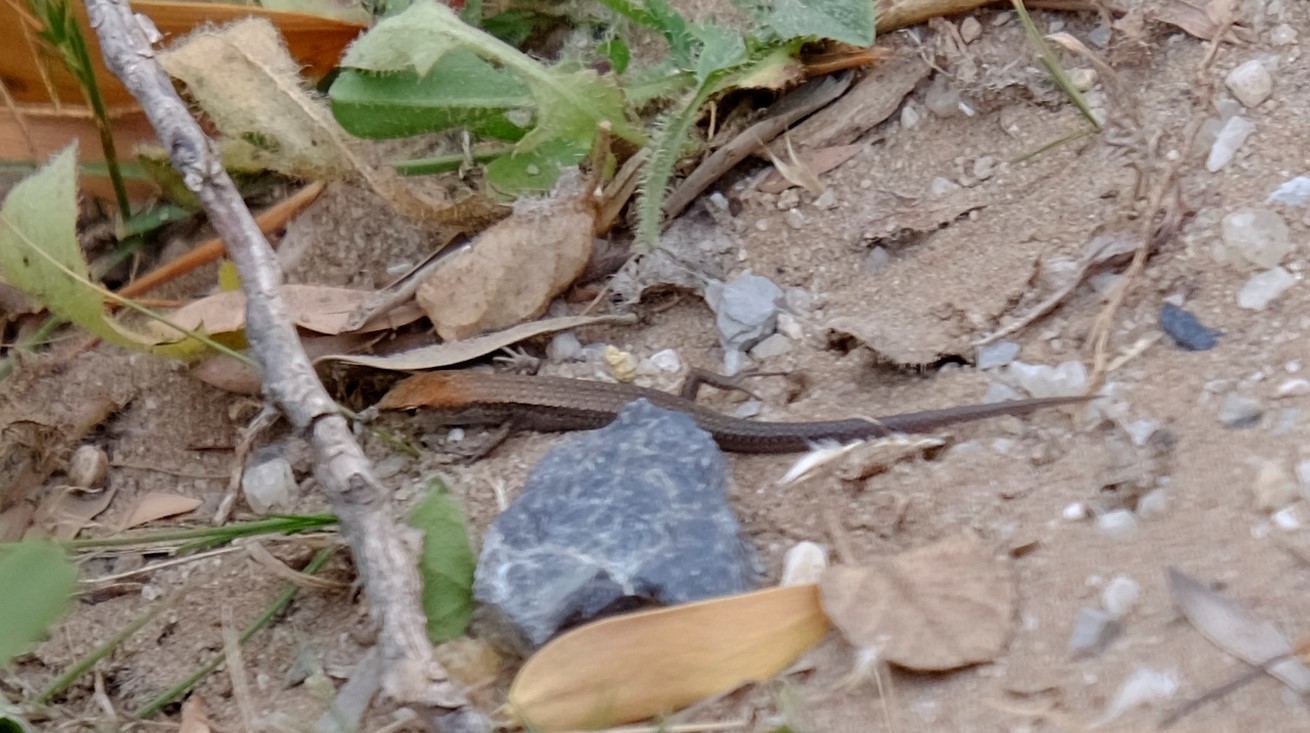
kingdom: Animalia
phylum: Chordata
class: Squamata
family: Scincidae
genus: Lampropholis
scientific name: Lampropholis guichenoti
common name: Garden skink
